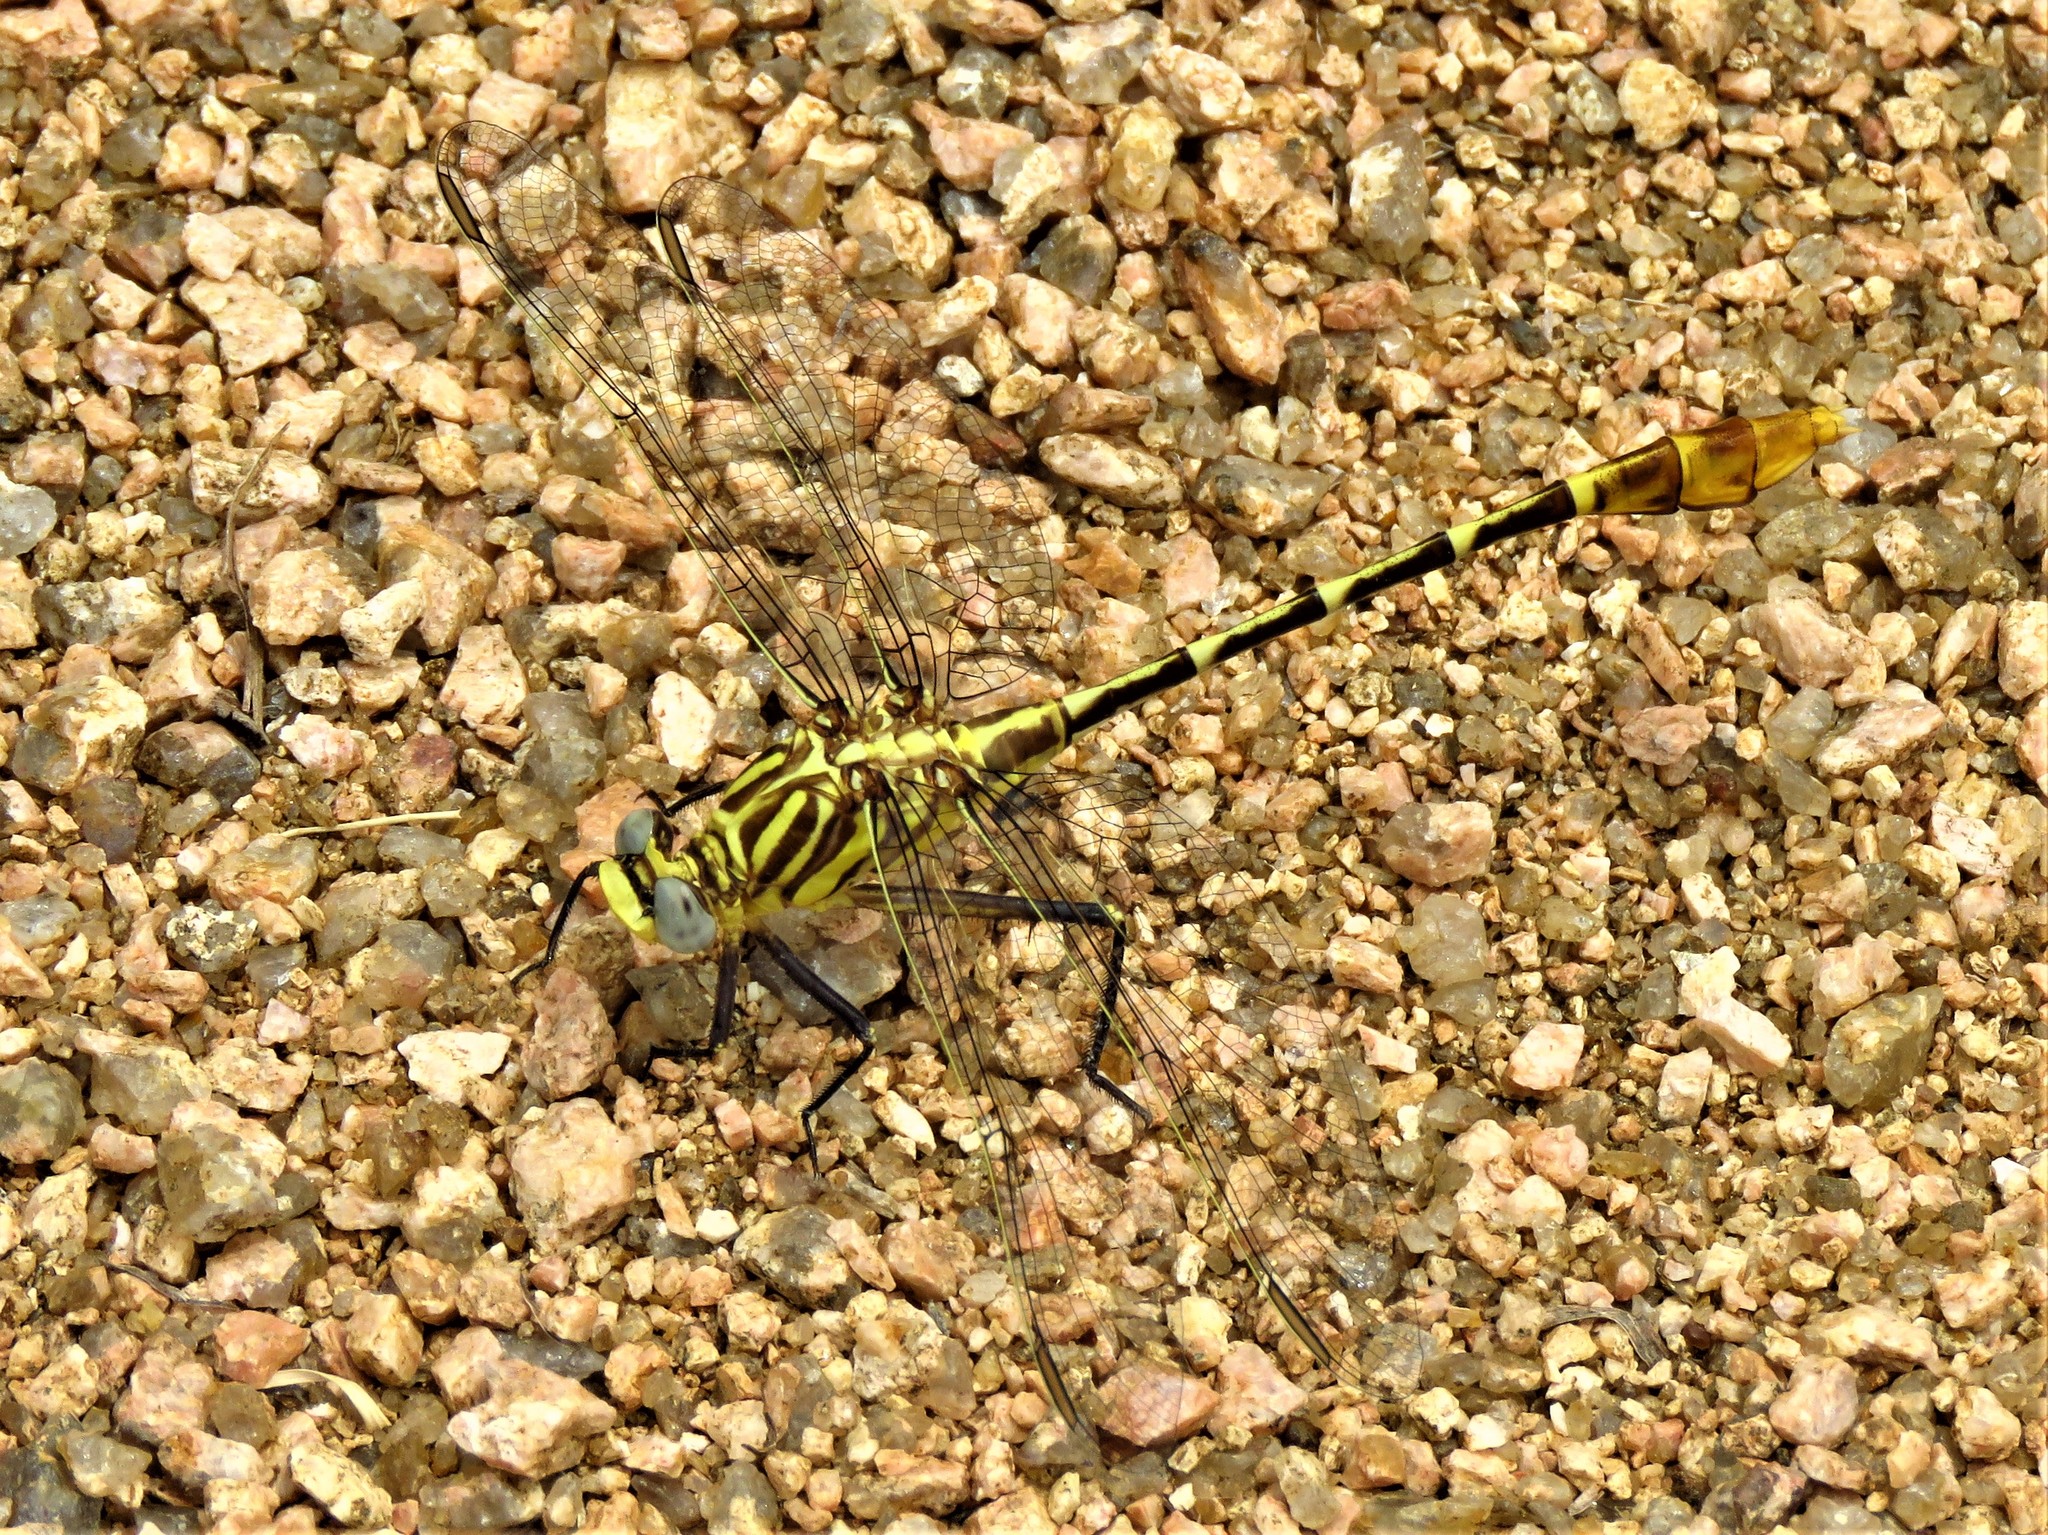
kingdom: Animalia
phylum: Arthropoda
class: Insecta
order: Odonata
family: Gomphidae
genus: Dromogomphus
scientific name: Dromogomphus spoliatus
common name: Flag-tailed spinyleg
